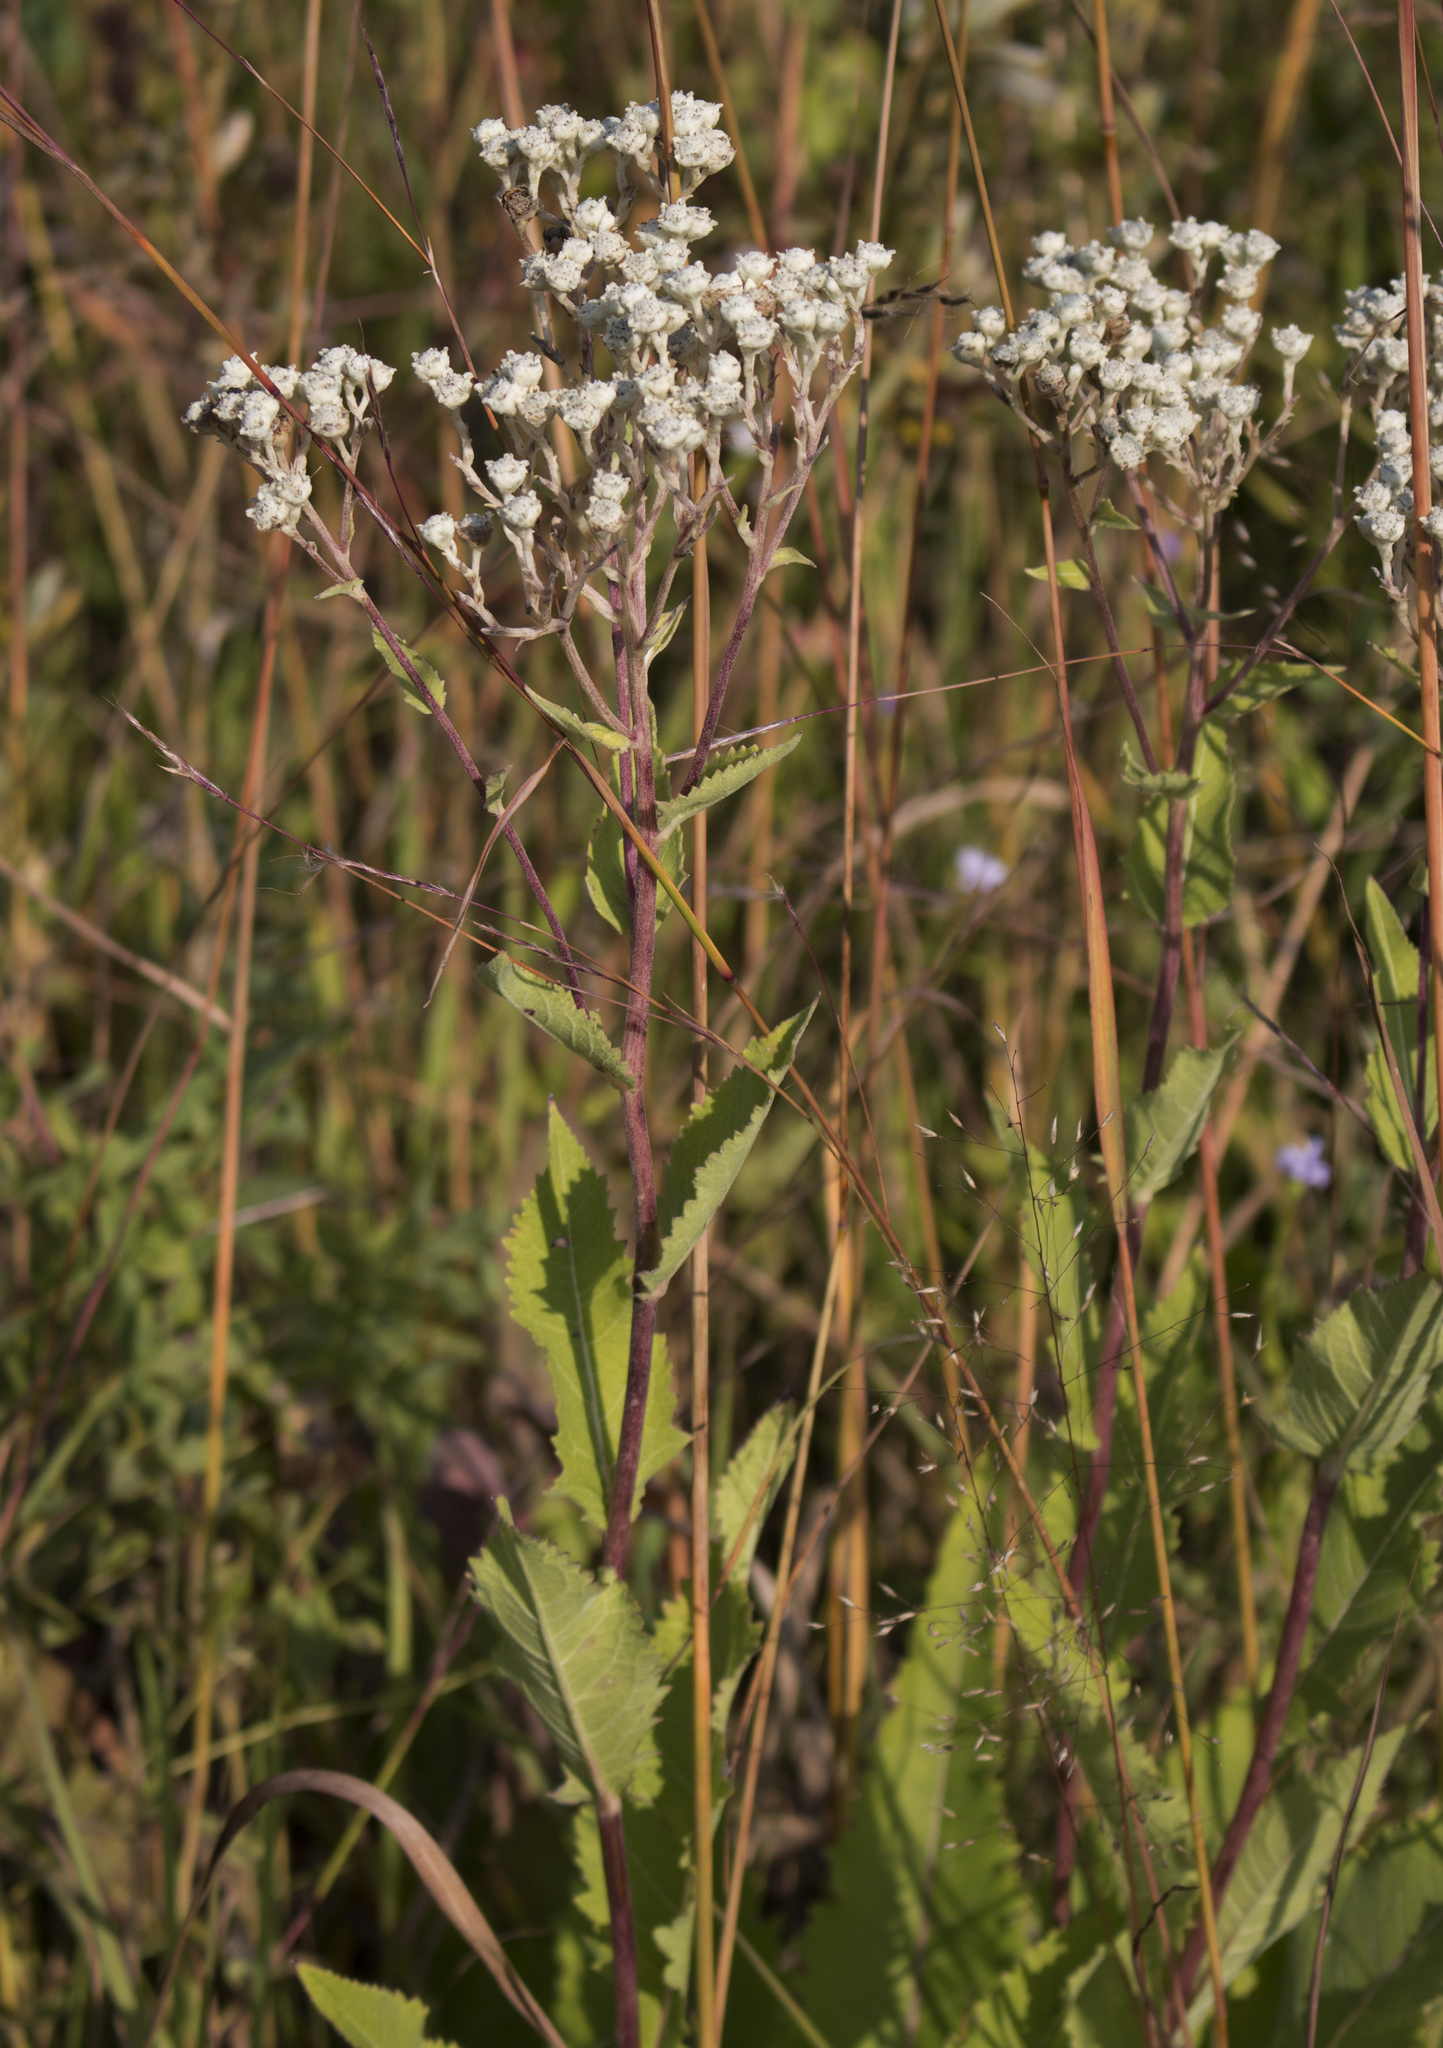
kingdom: Plantae
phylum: Tracheophyta
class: Magnoliopsida
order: Asterales
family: Asteraceae
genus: Parthenium
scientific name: Parthenium integrifolium
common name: American feverfew
